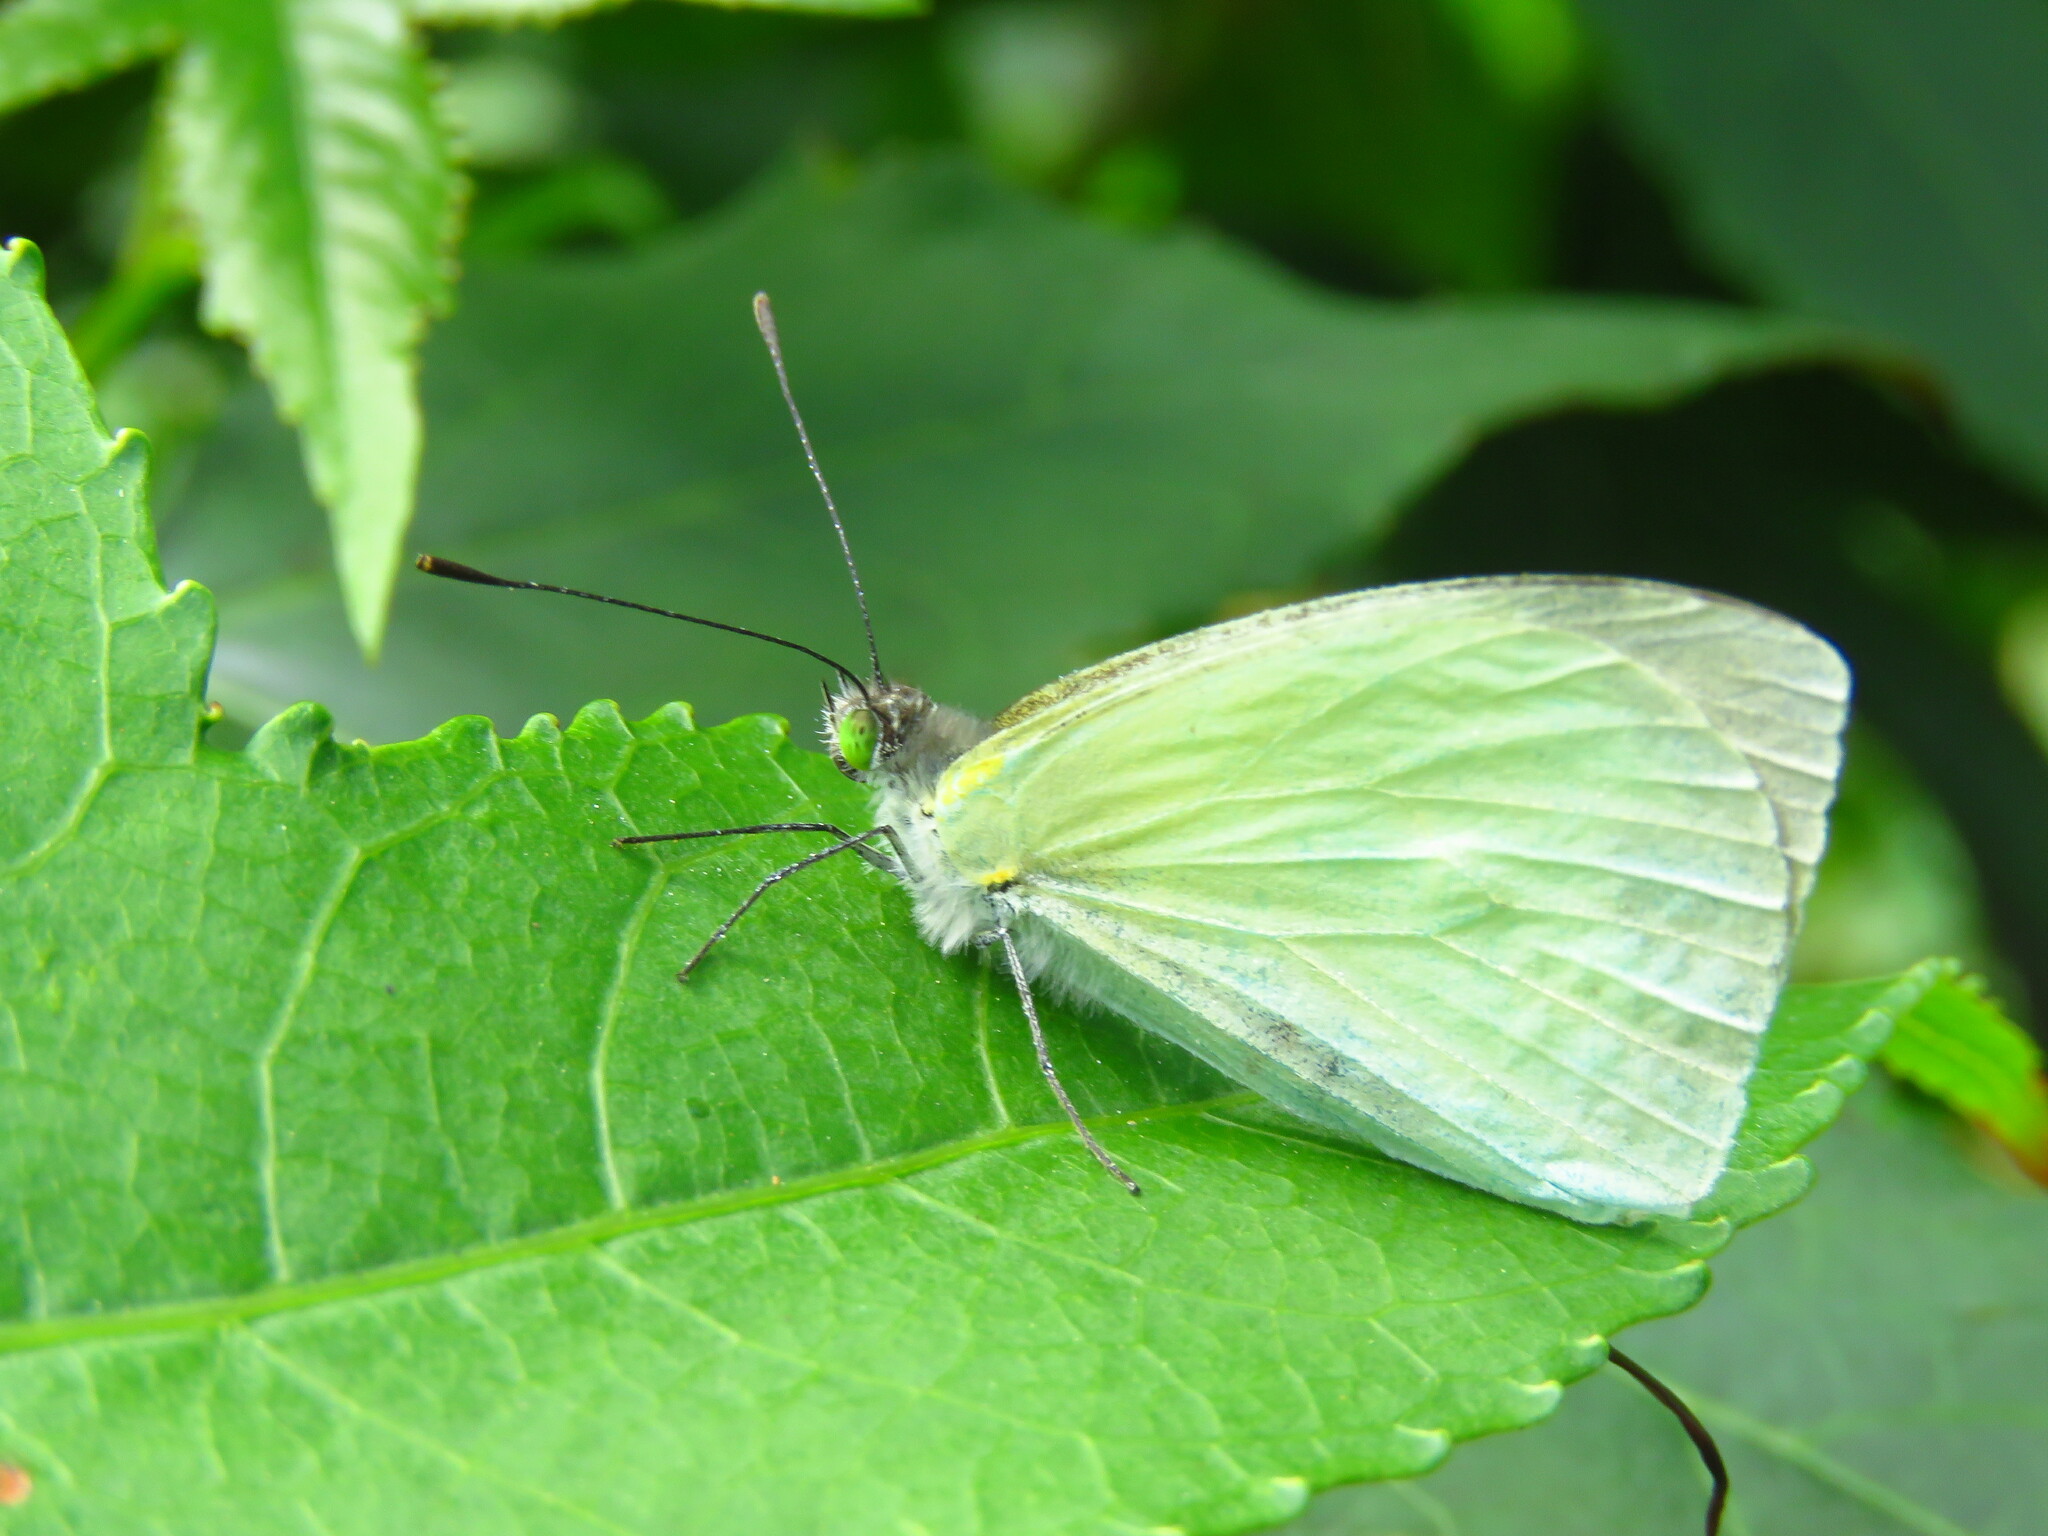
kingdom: Animalia
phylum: Arthropoda
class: Insecta
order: Lepidoptera
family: Pieridae
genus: Leptophobia
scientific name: Leptophobia aripa
